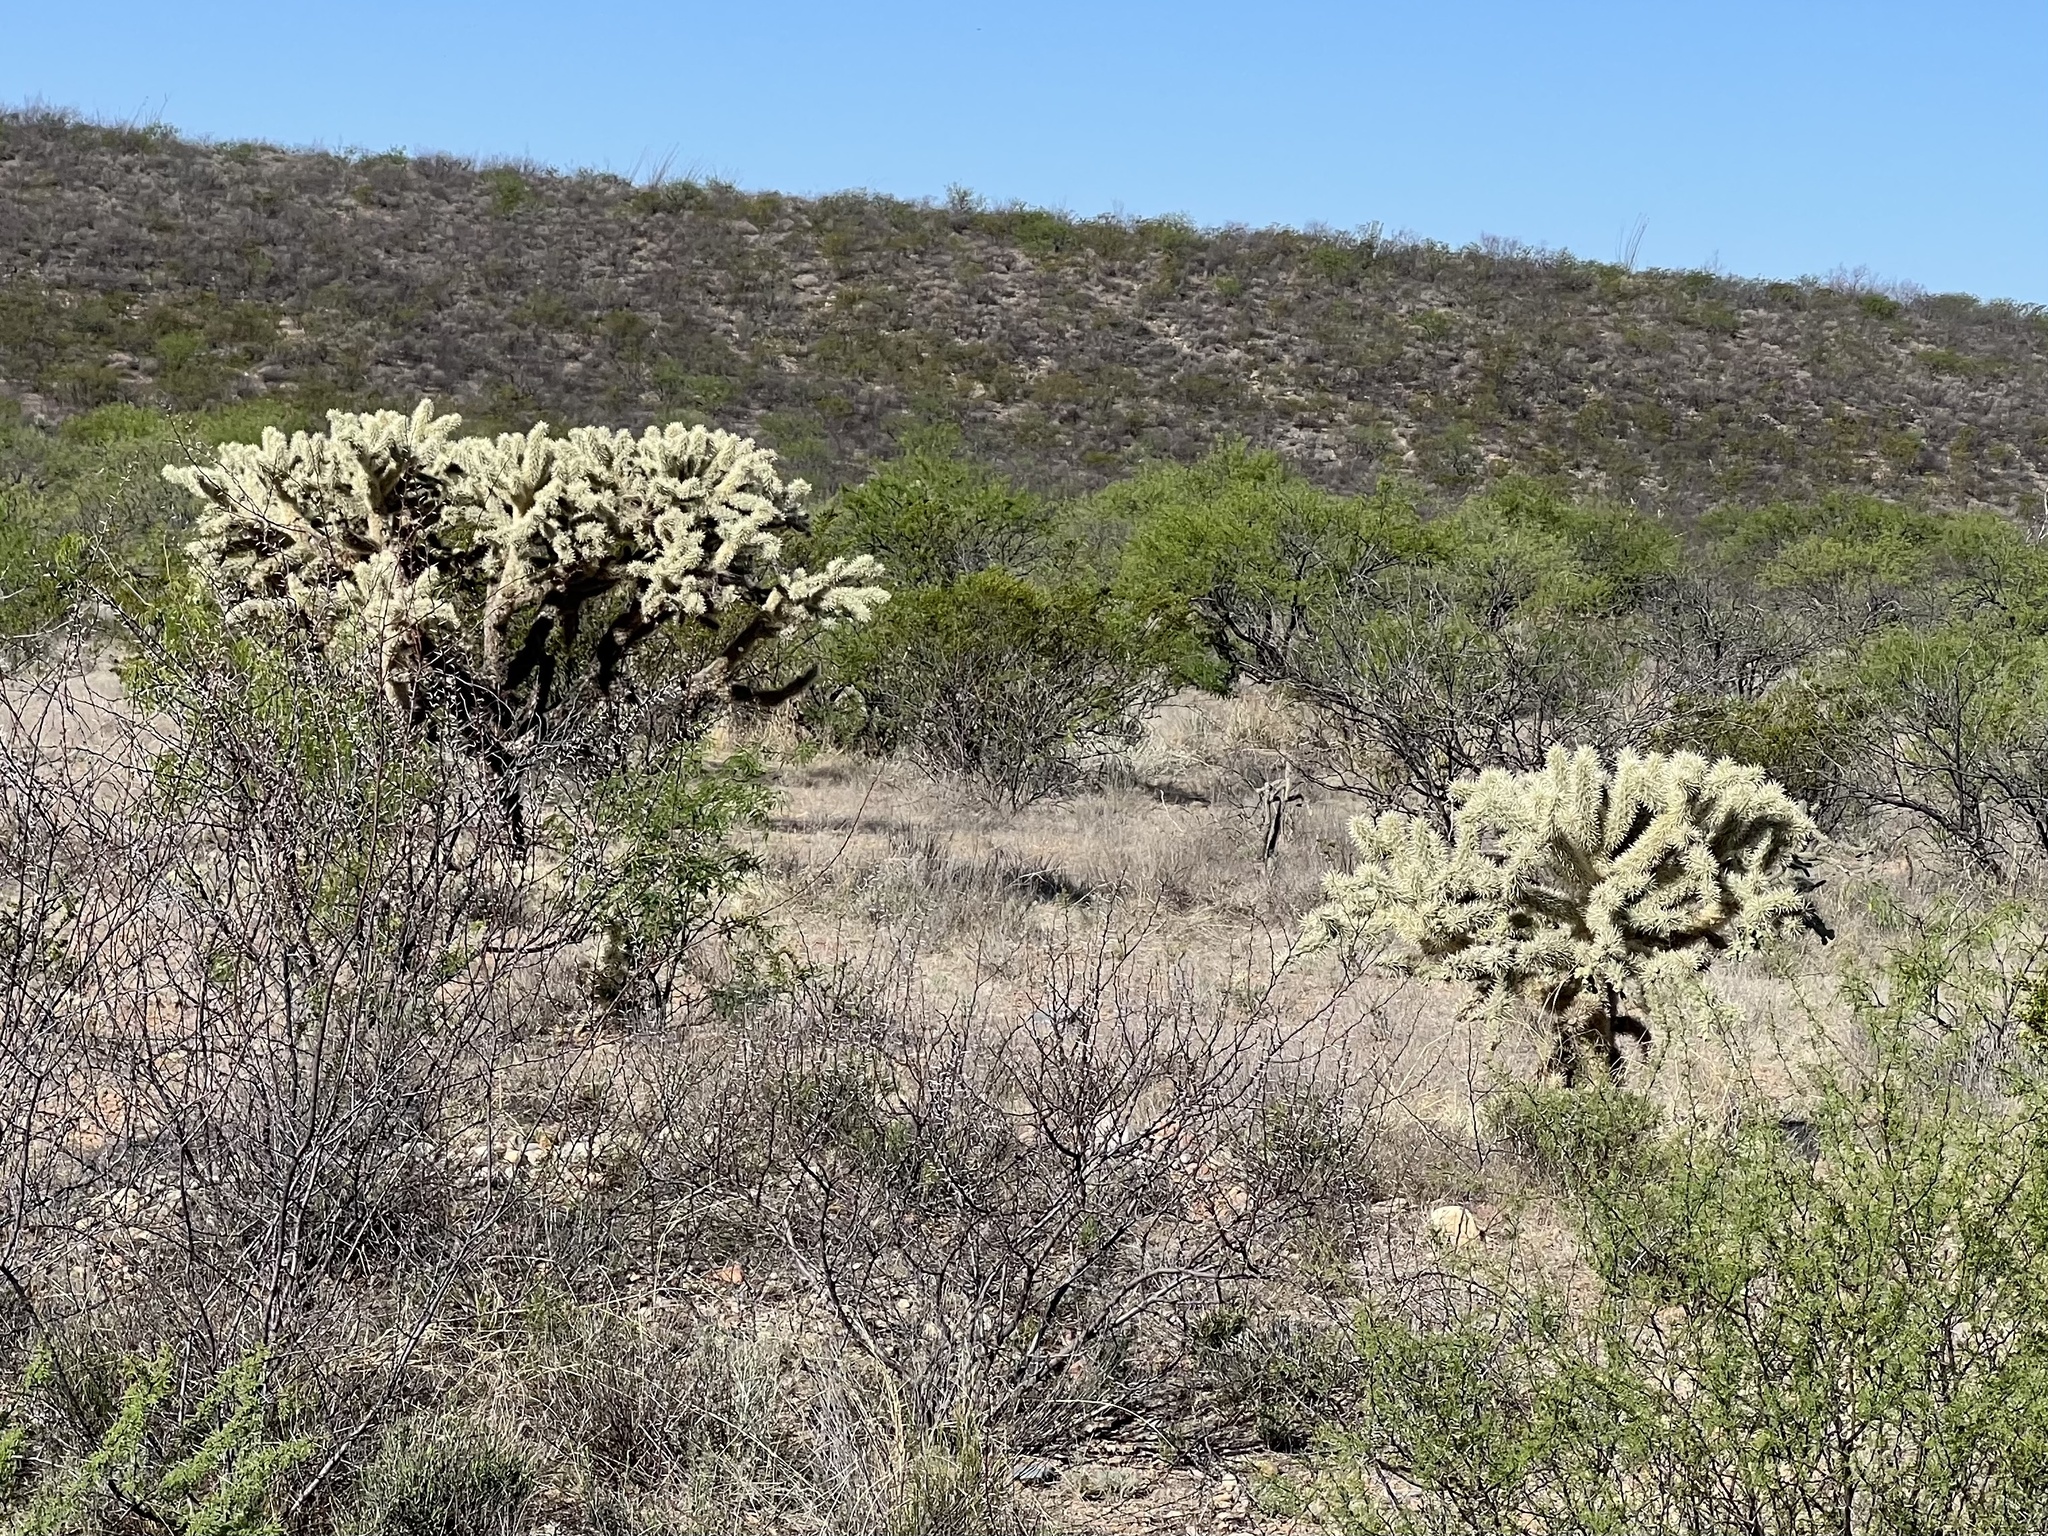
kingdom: Plantae
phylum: Tracheophyta
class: Magnoliopsida
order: Caryophyllales
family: Cactaceae
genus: Cylindropuntia
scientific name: Cylindropuntia fulgida
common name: Jumping cholla
